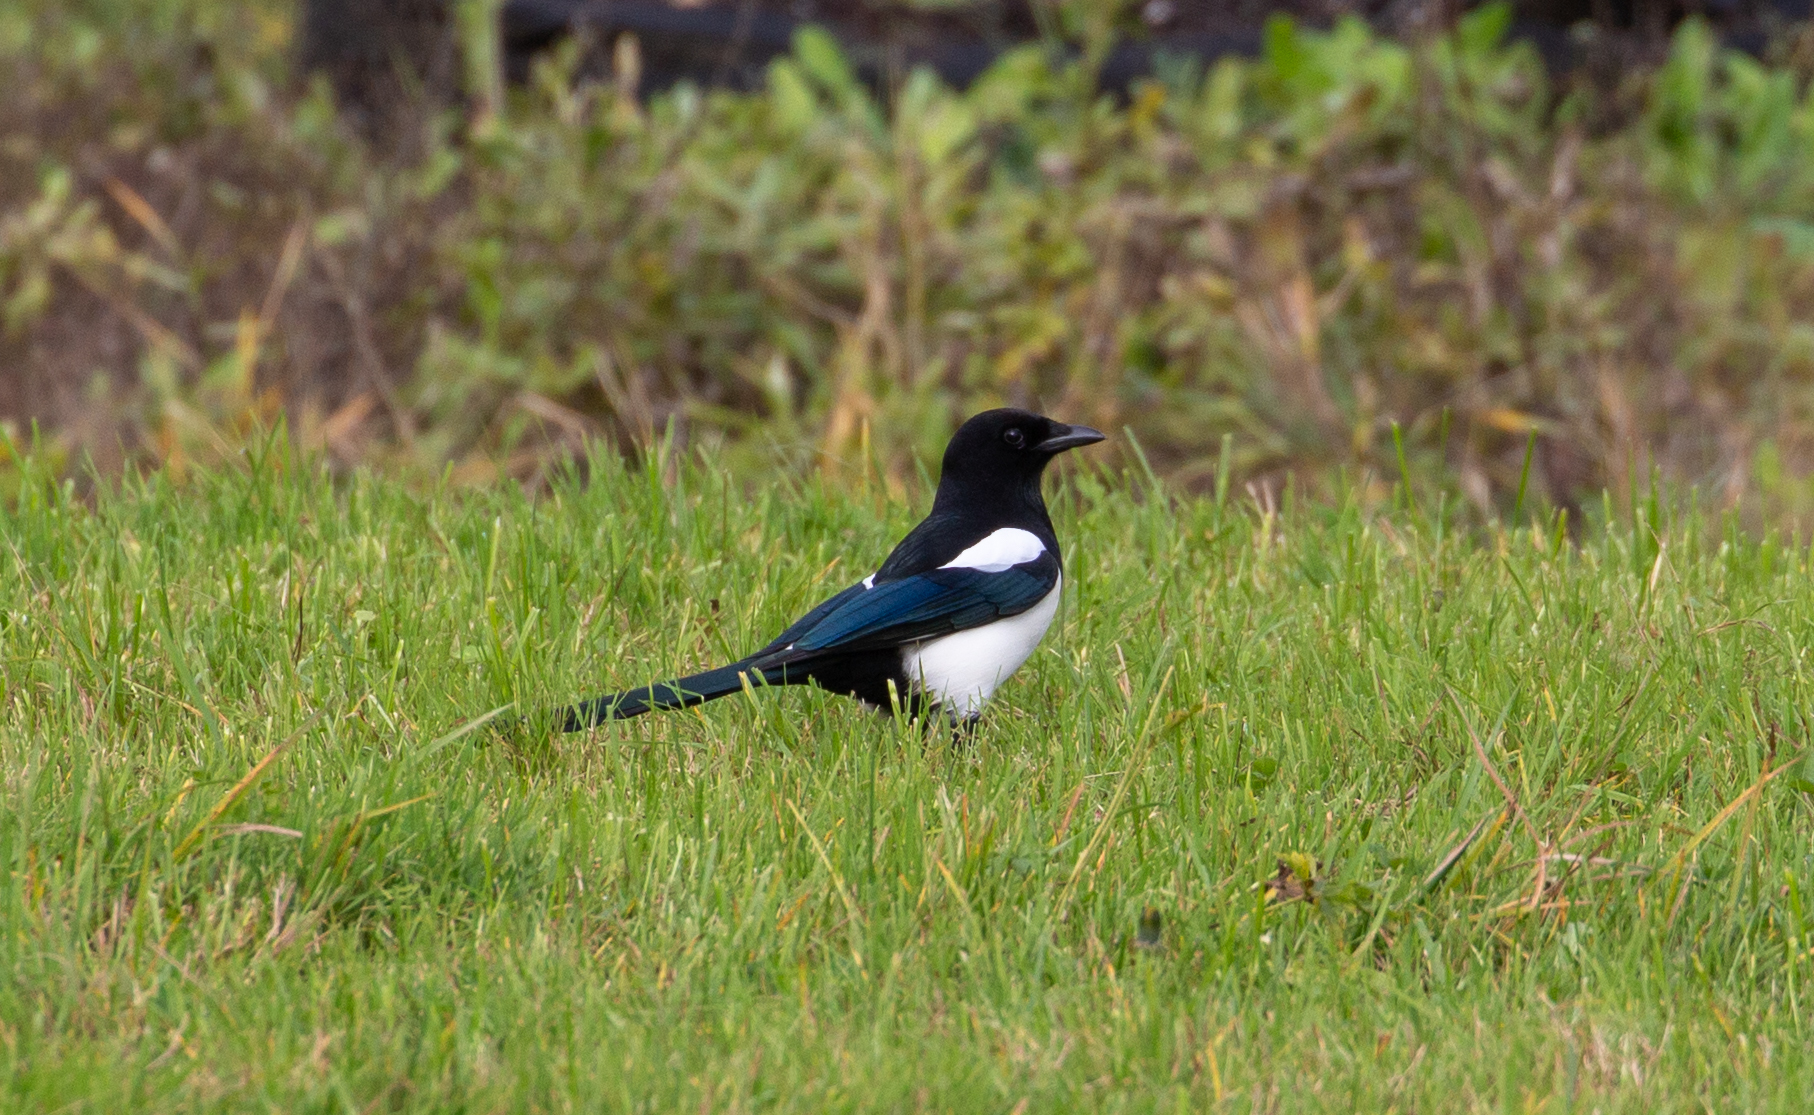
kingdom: Animalia
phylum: Chordata
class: Aves
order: Passeriformes
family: Corvidae
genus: Pica
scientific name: Pica pica
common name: Eurasian magpie
